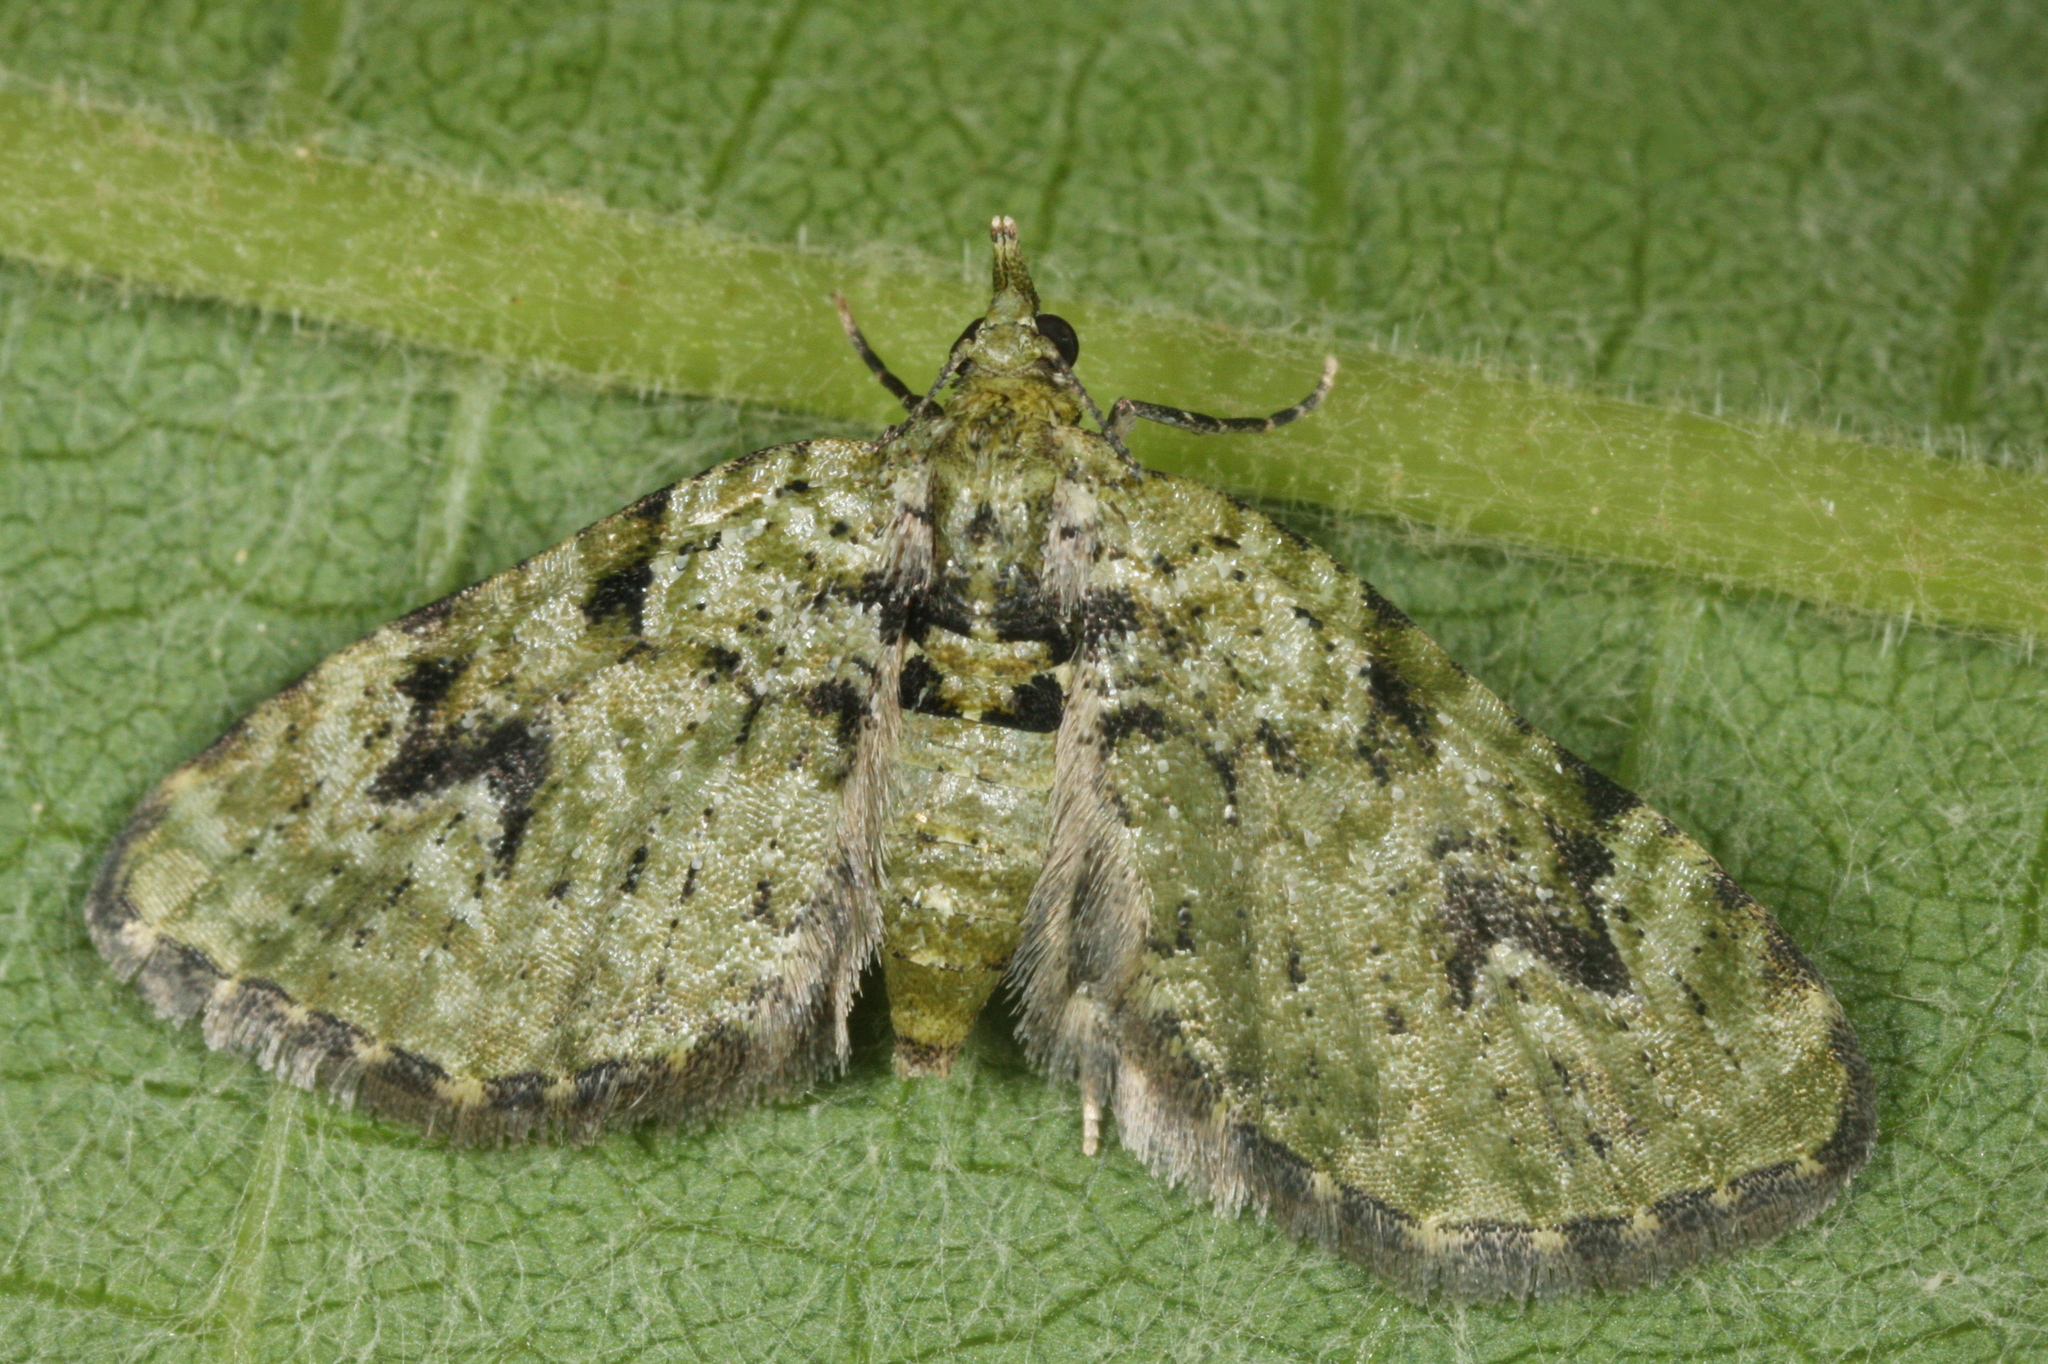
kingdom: Animalia
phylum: Arthropoda
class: Insecta
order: Lepidoptera
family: Geometridae
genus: Chloroclystis
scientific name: Chloroclystis v-ata
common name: V-pug
